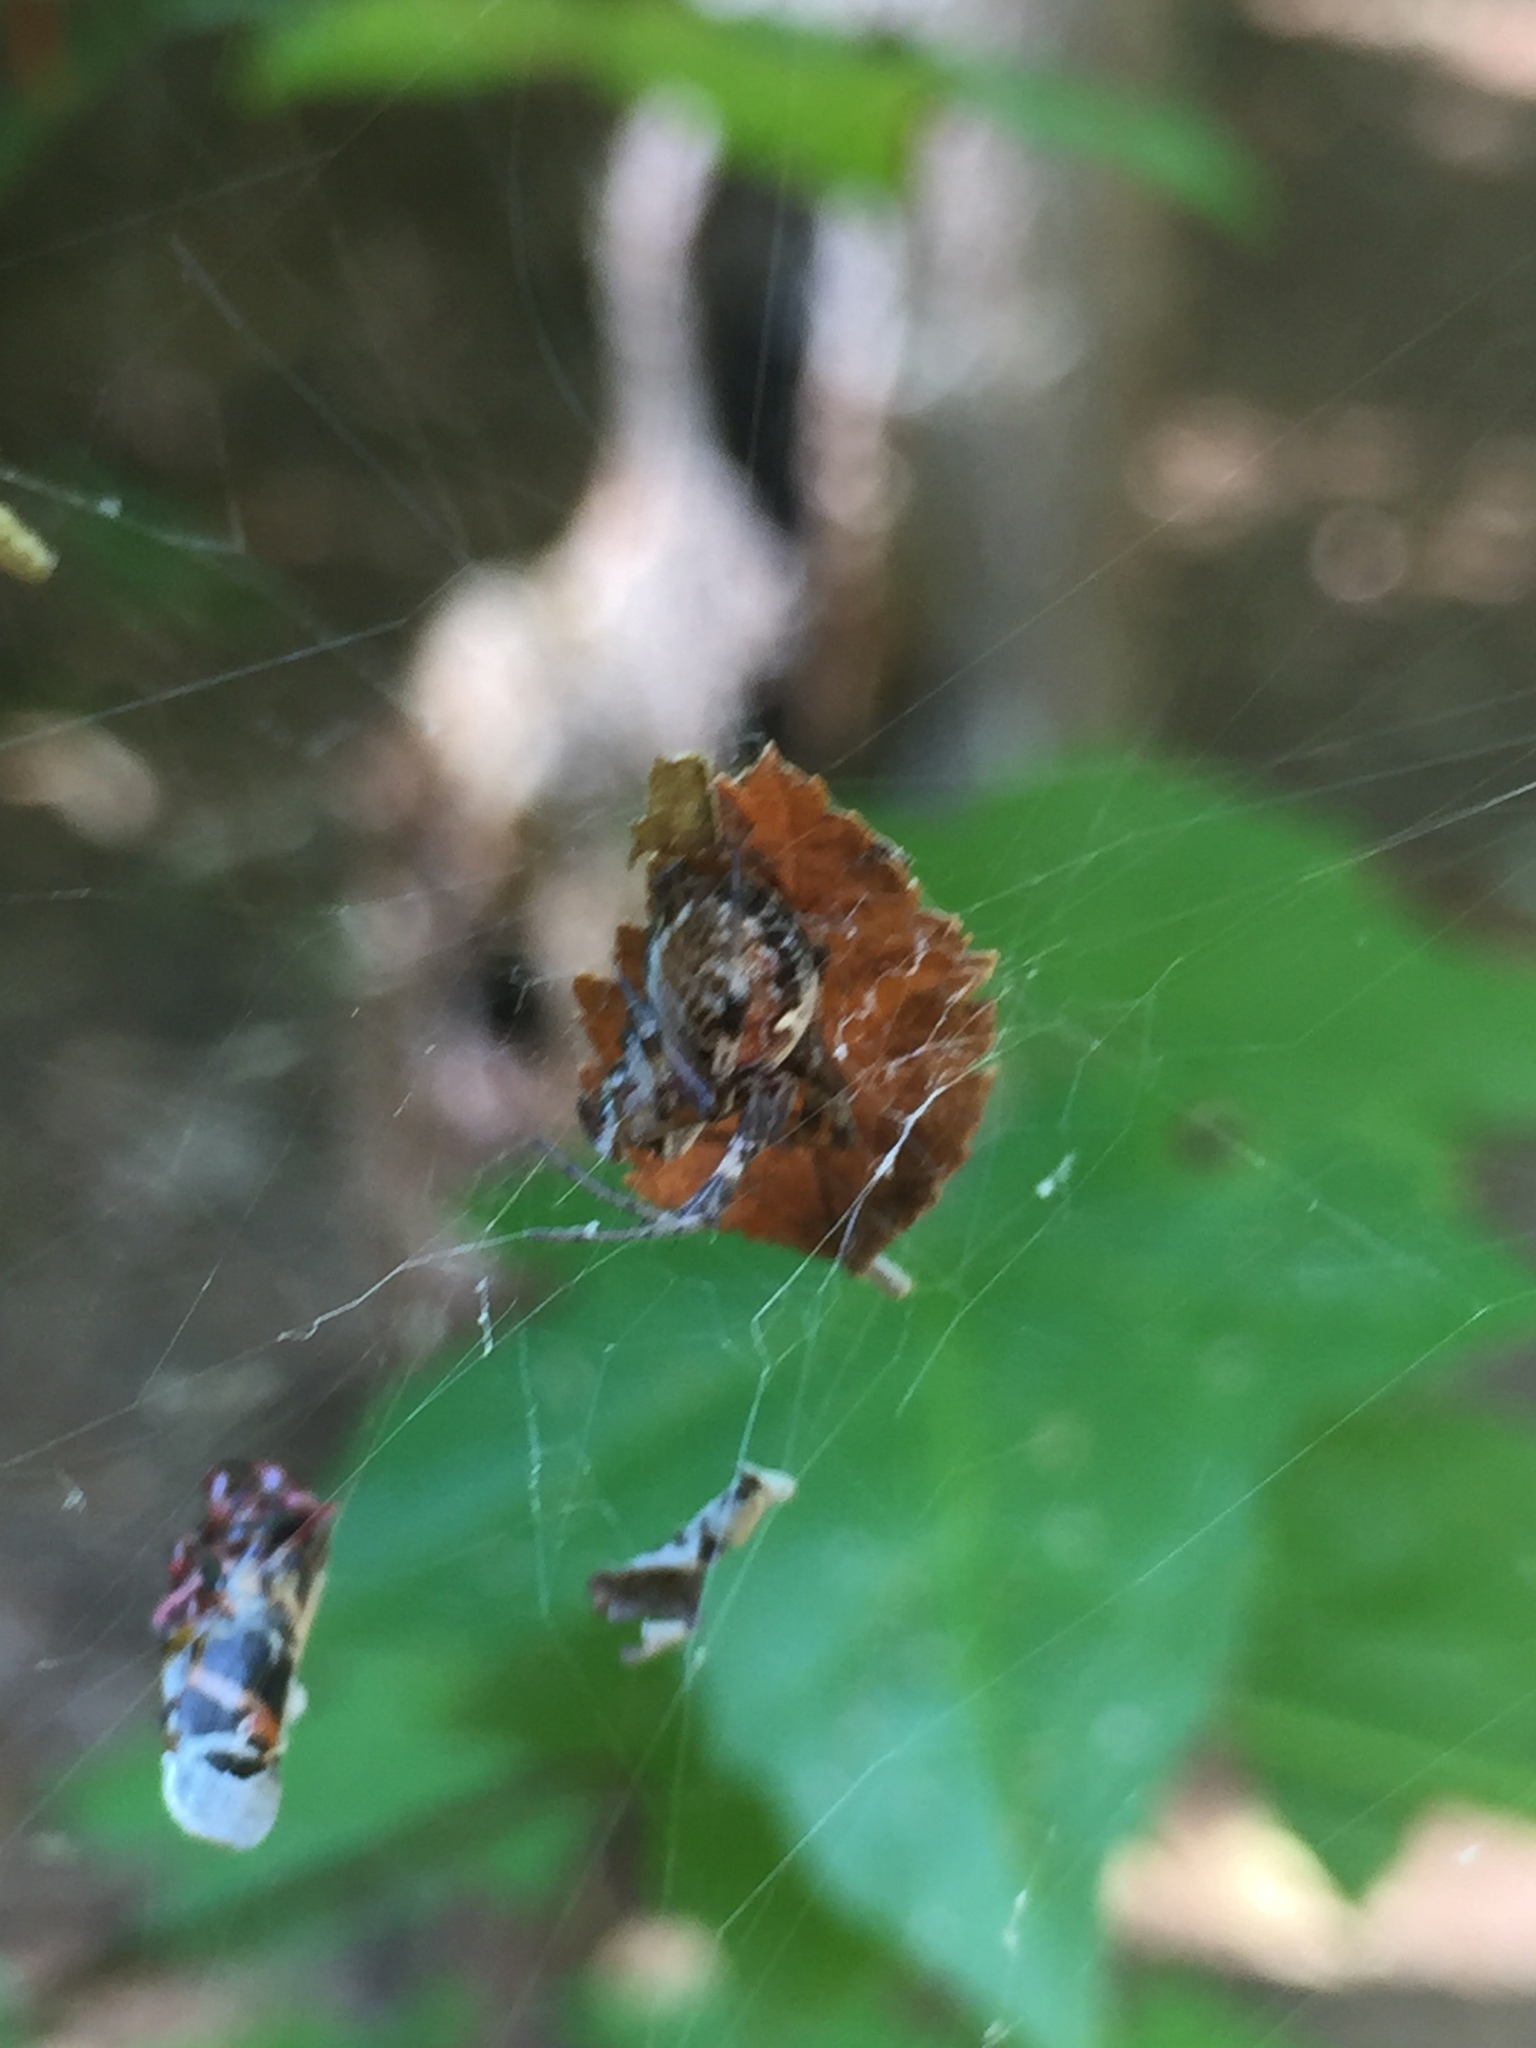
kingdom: Animalia
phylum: Arthropoda
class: Arachnida
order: Araneae
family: Araneidae
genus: Metepeira
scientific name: Metepeira labyrinthea
